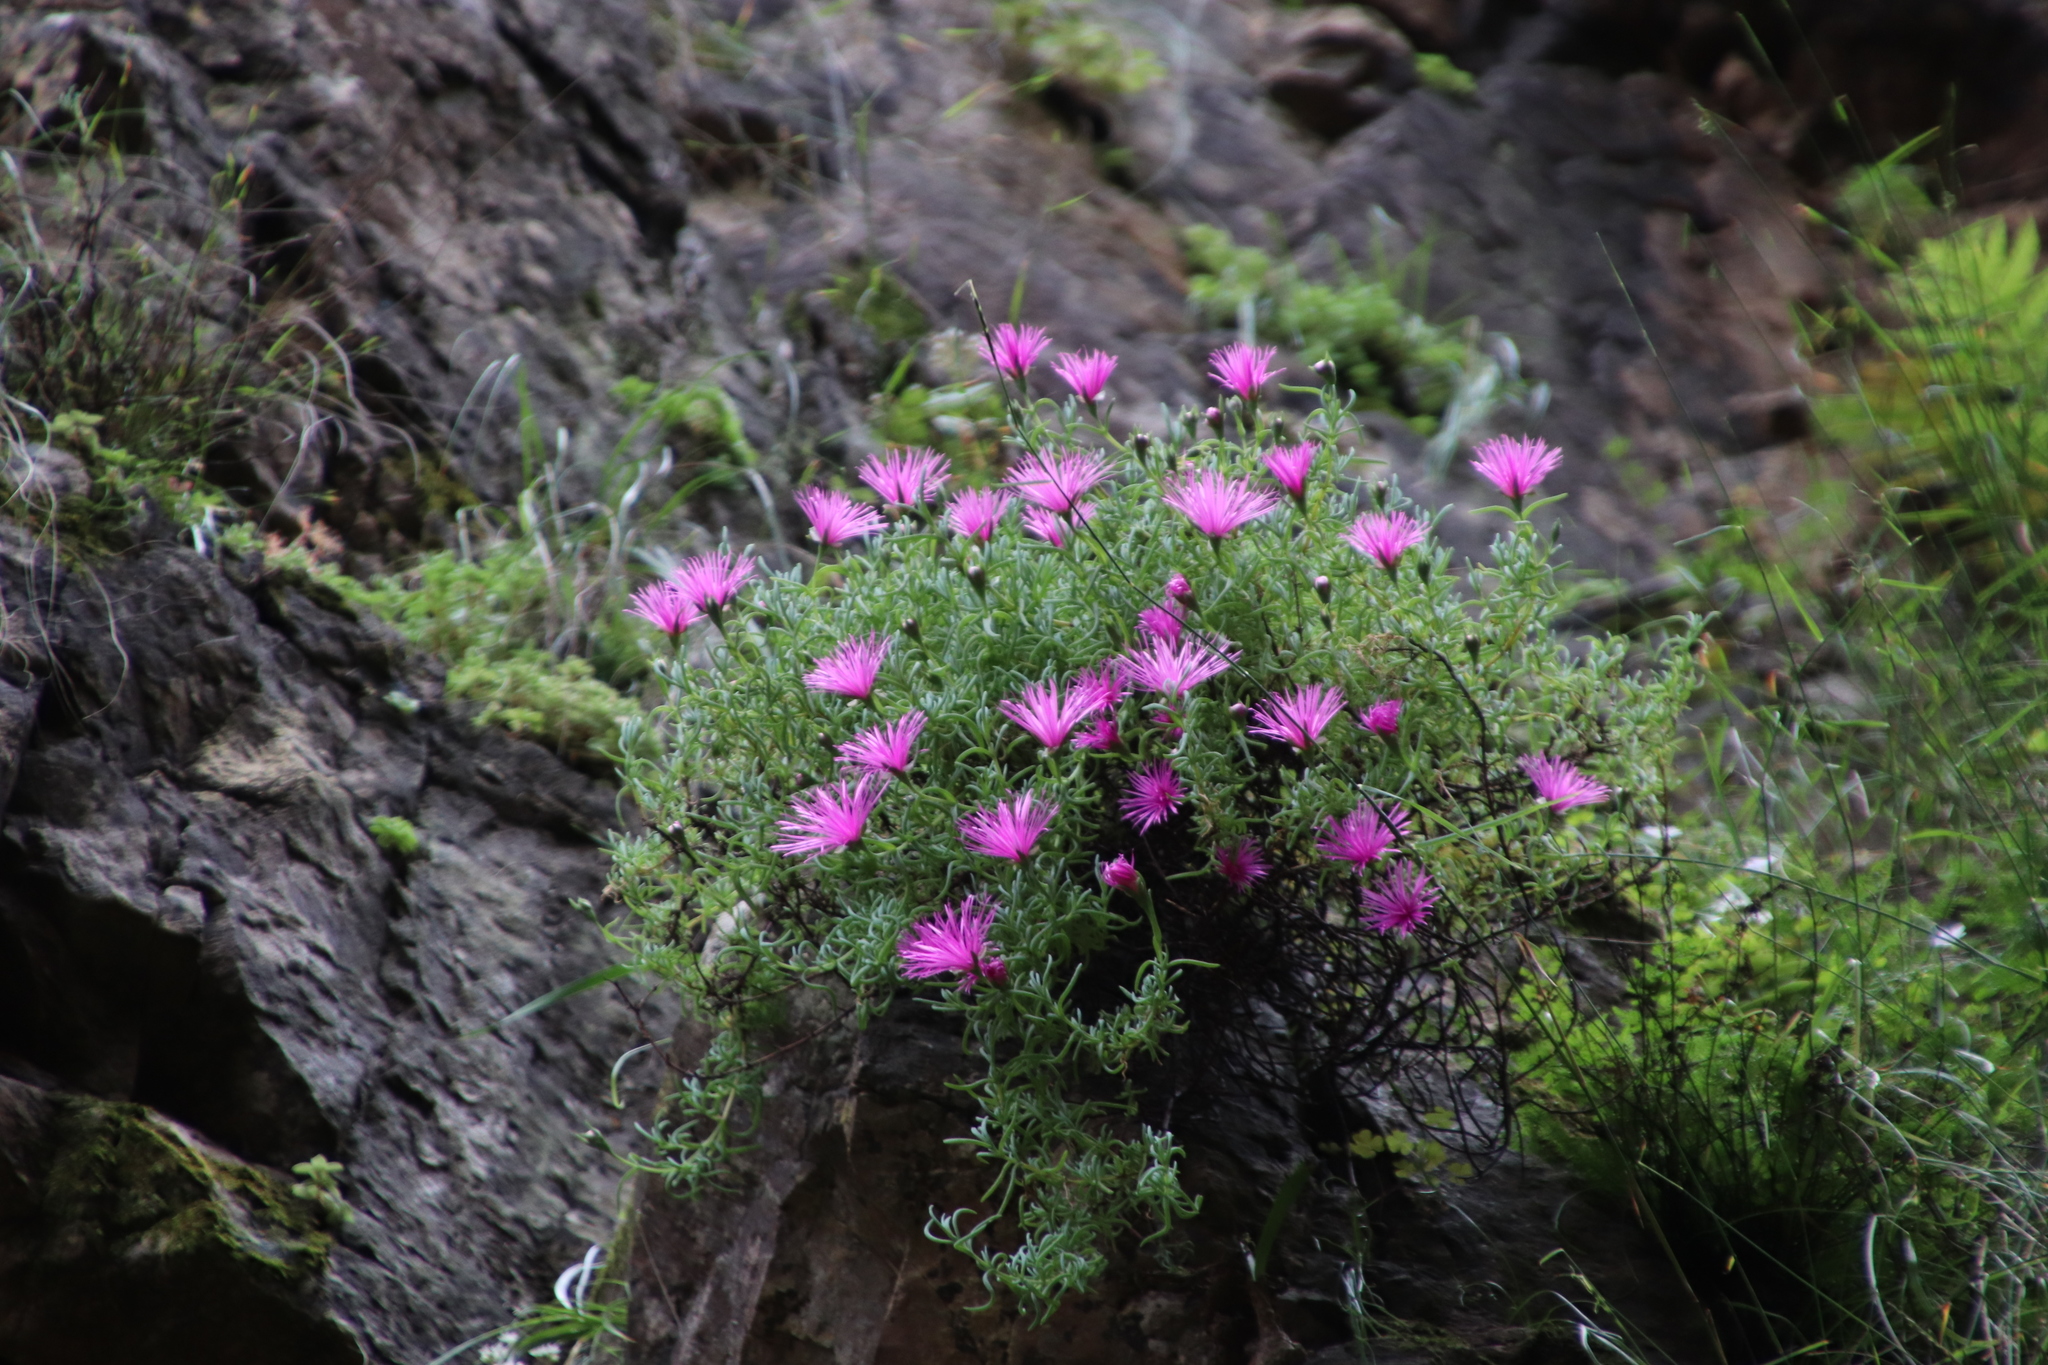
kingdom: Plantae
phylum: Tracheophyta
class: Magnoliopsida
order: Caryophyllales
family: Aizoaceae
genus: Roosia
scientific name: Roosia lucilleae
